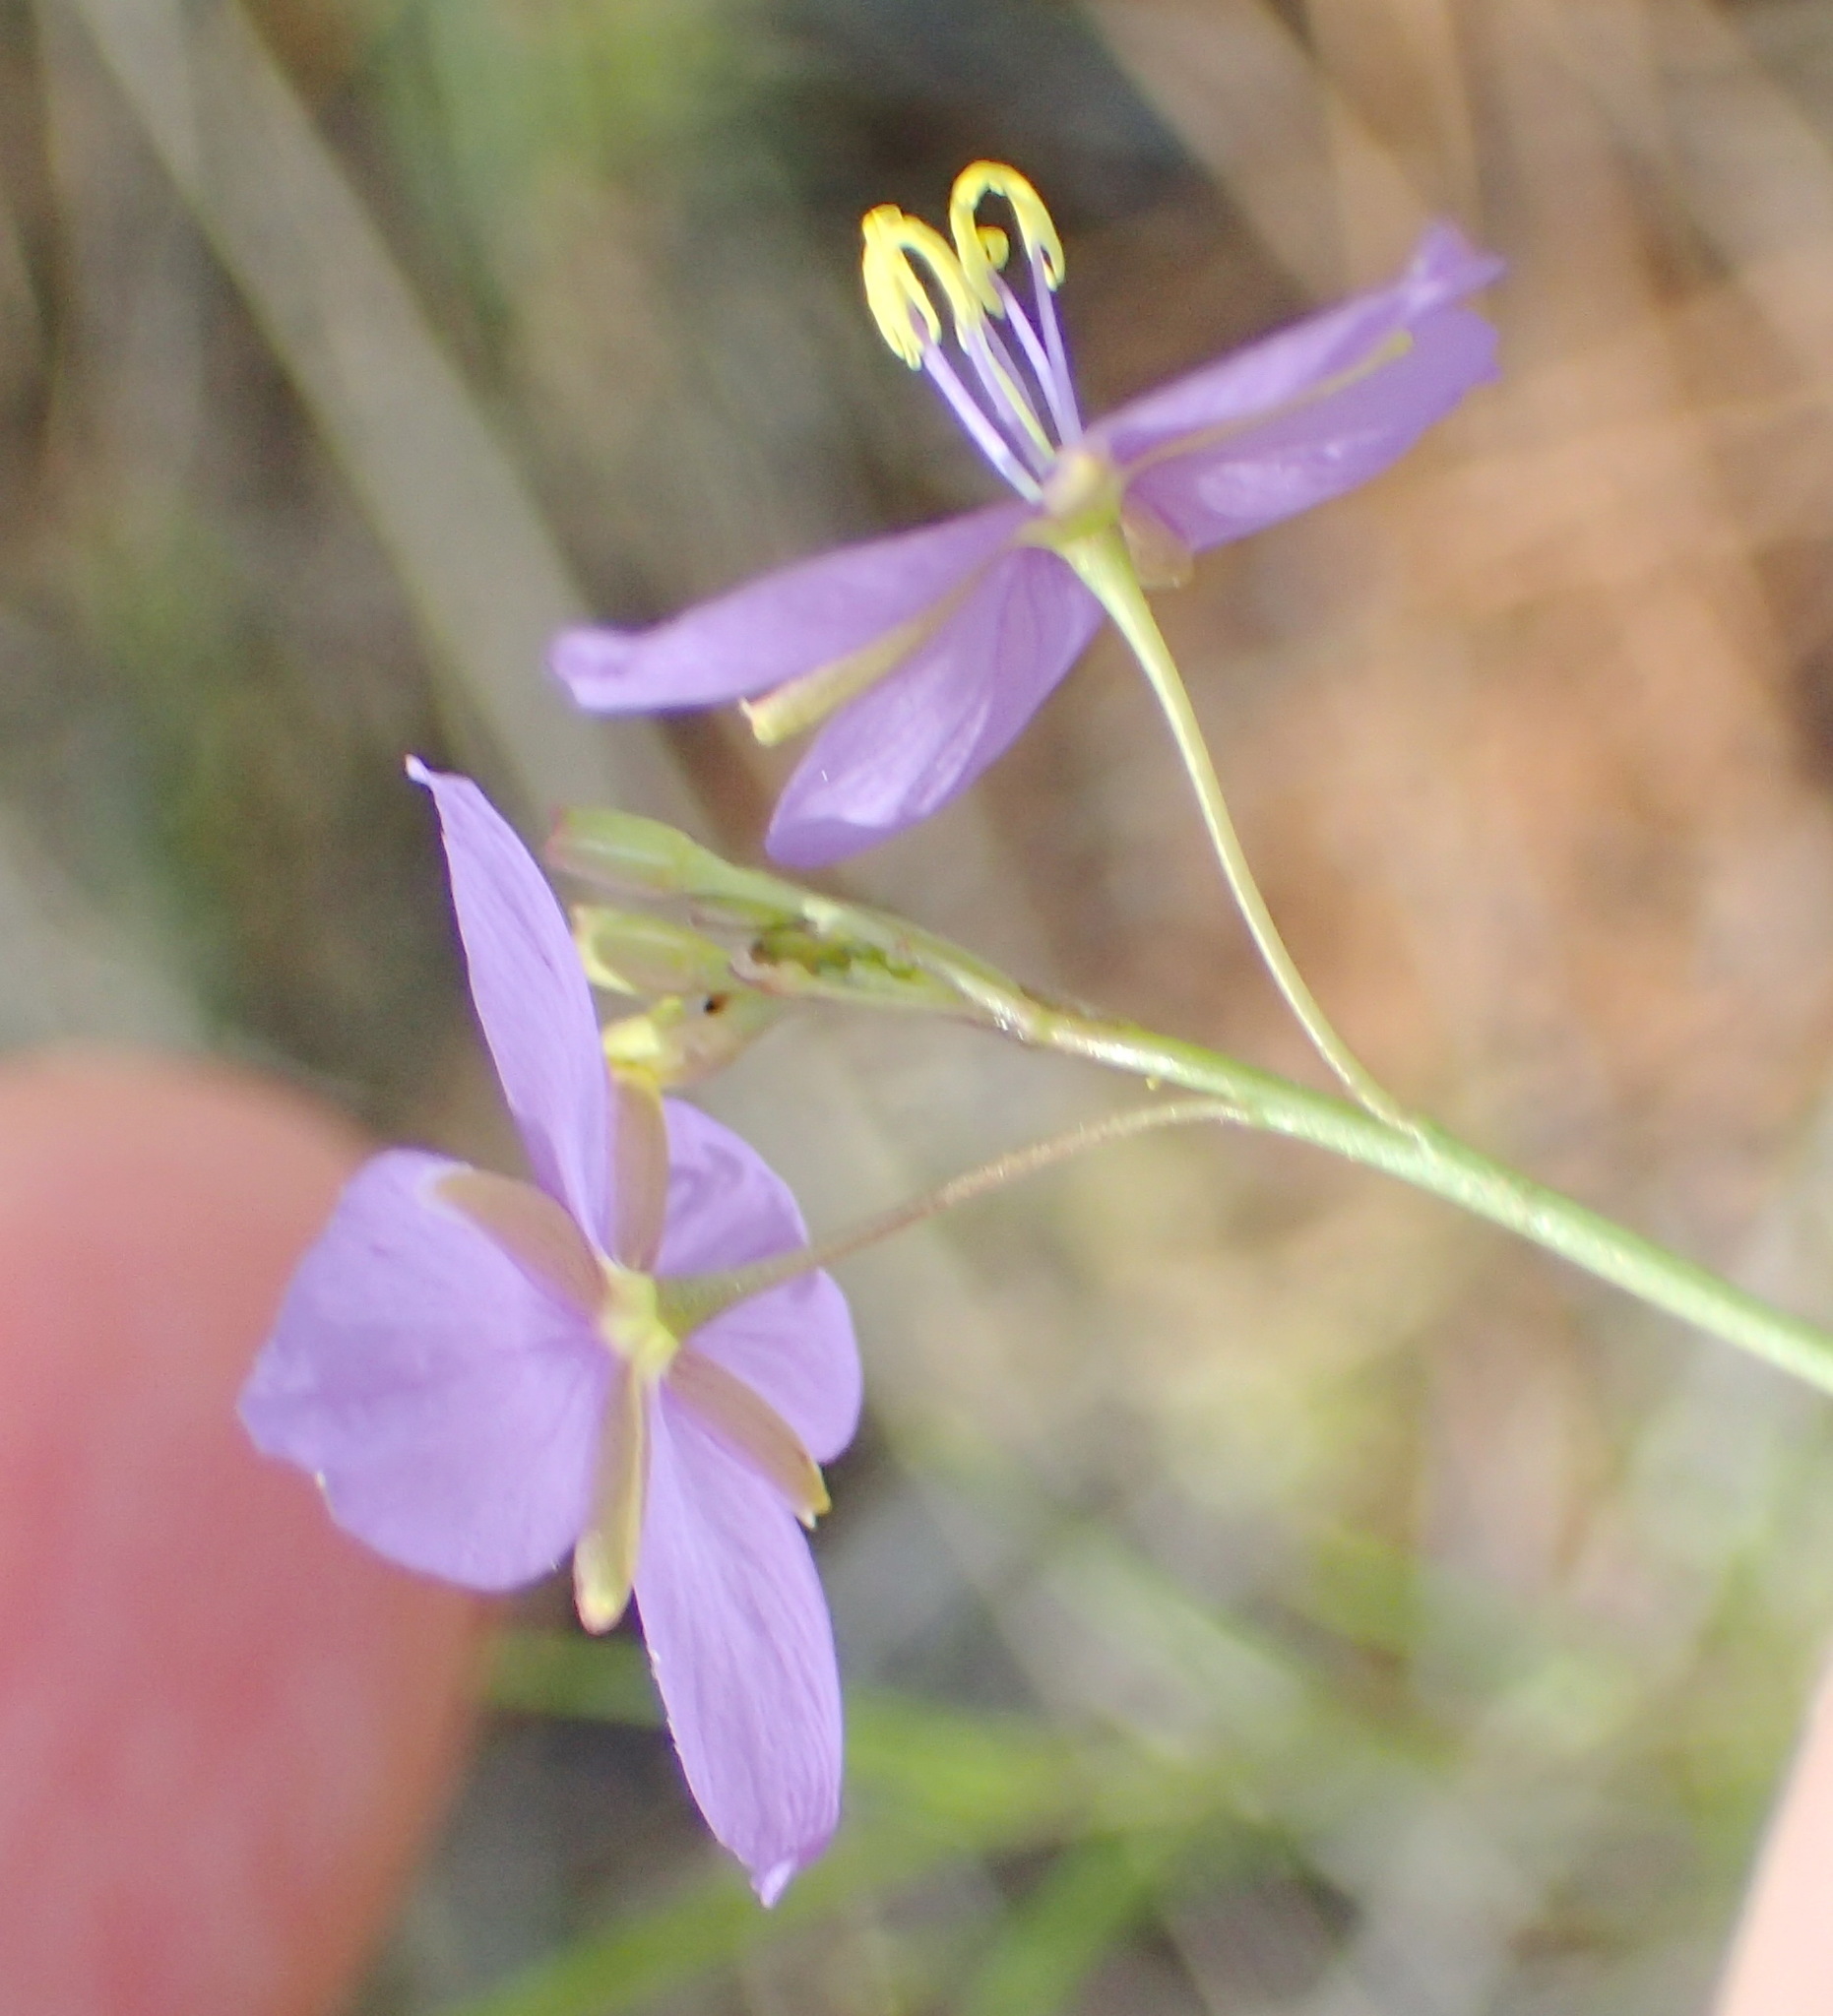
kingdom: Plantae
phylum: Tracheophyta
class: Magnoliopsida
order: Brassicales
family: Brassicaceae
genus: Heliophila
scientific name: Heliophila subulata
